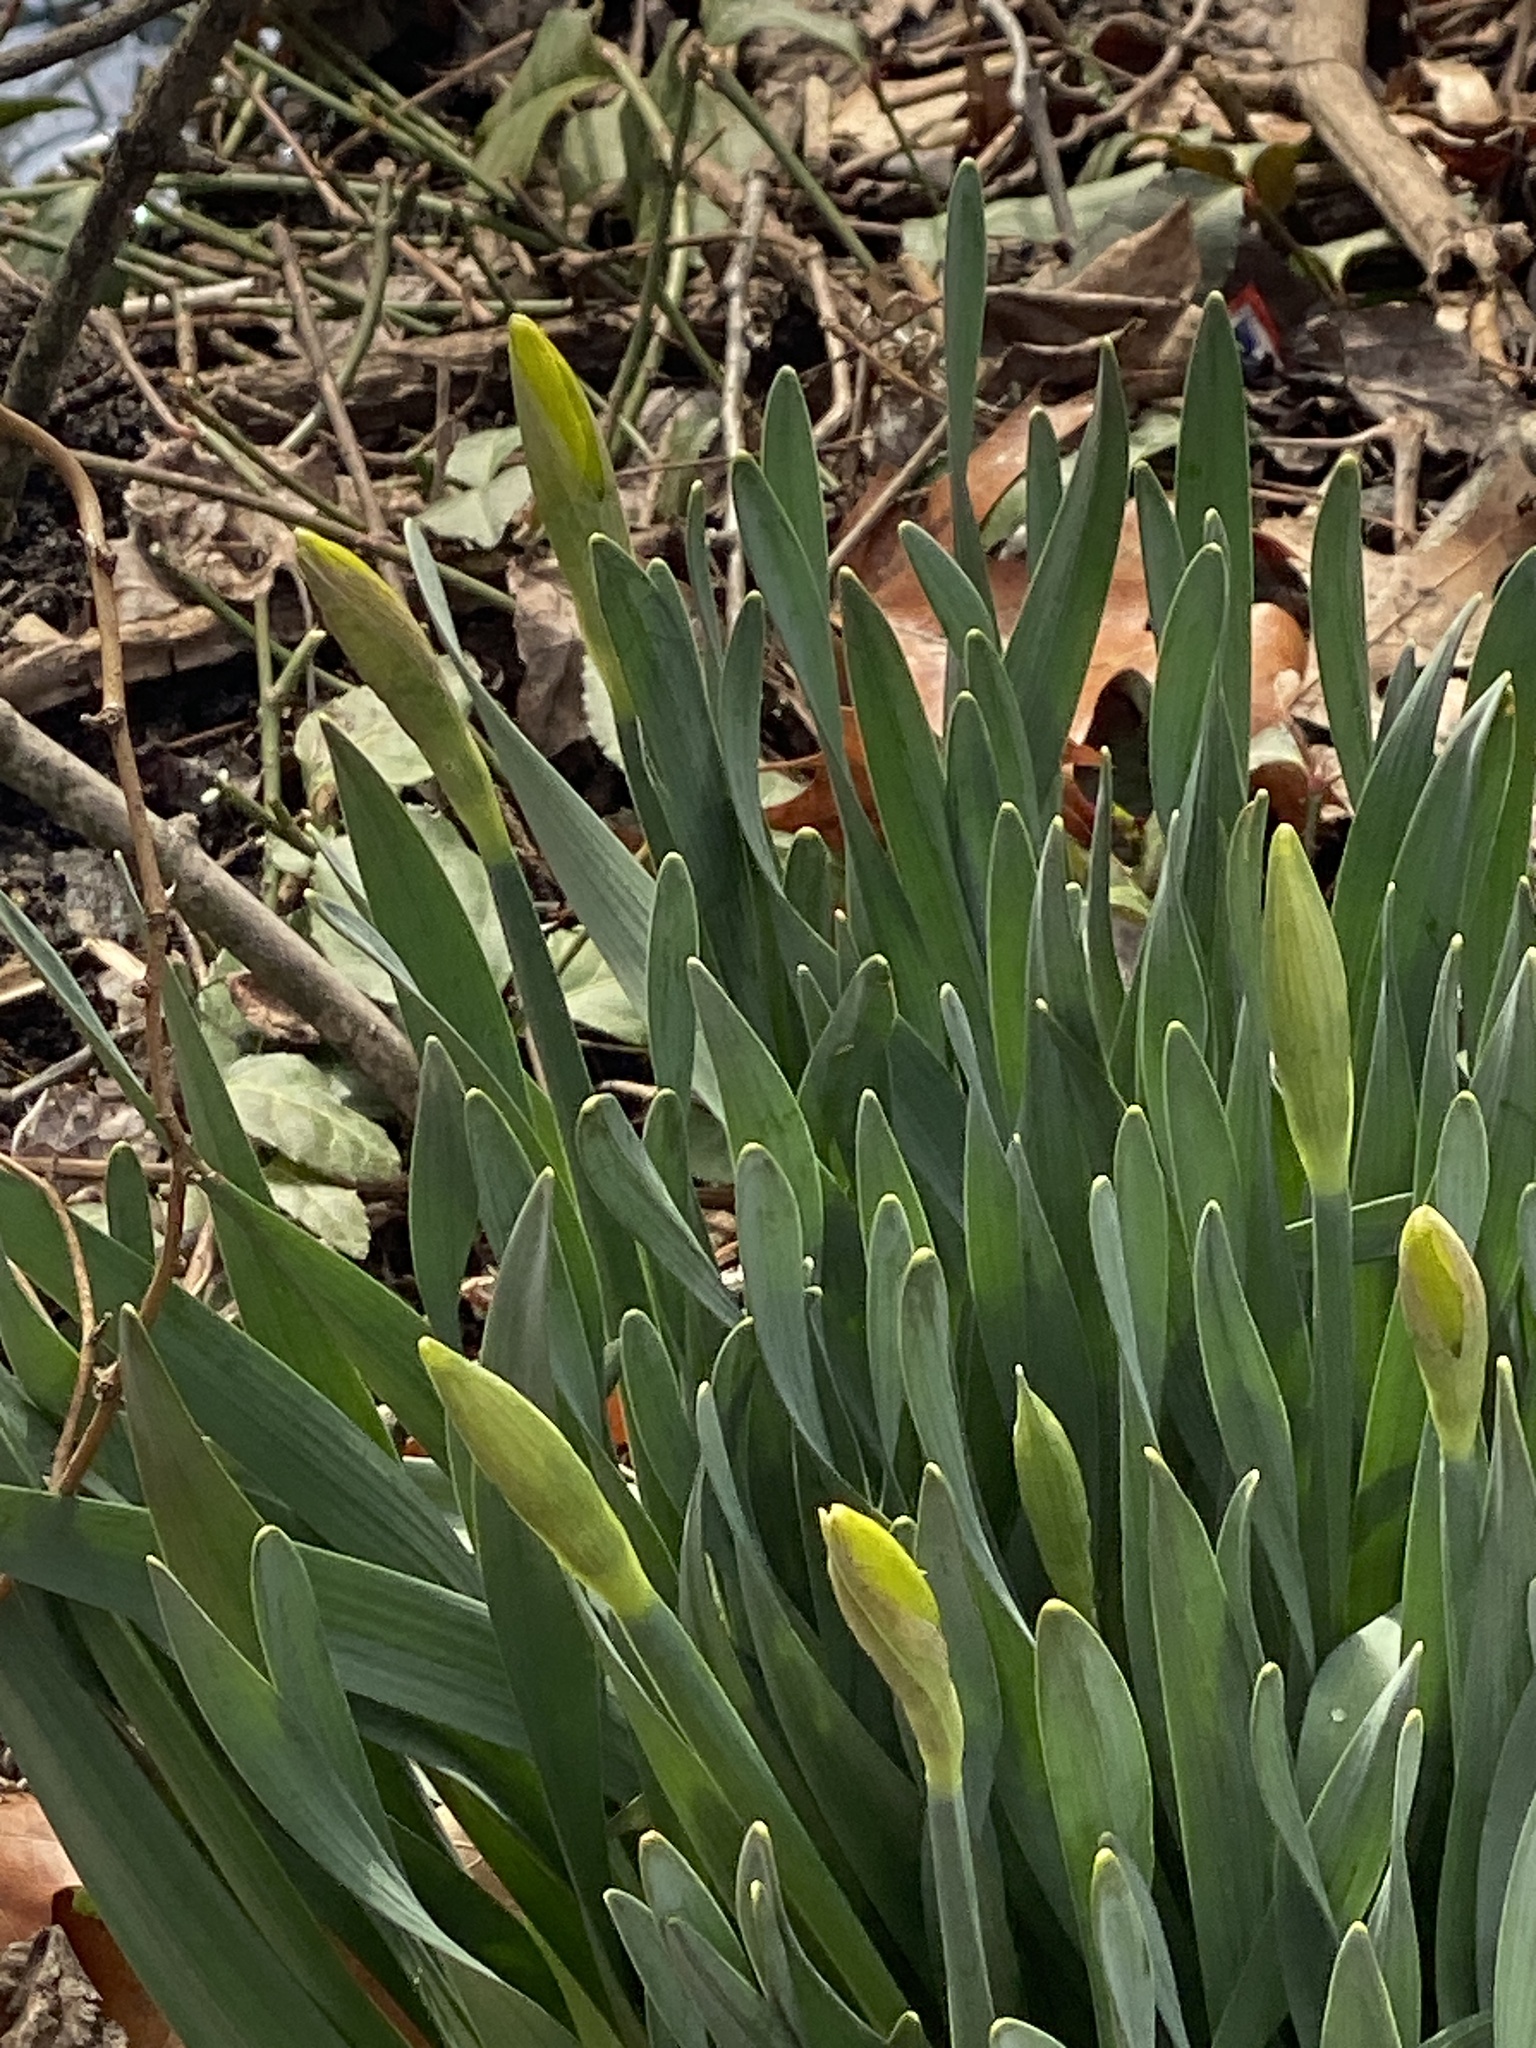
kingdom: Plantae
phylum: Tracheophyta
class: Liliopsida
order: Asparagales
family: Amaryllidaceae
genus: Narcissus
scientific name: Narcissus
